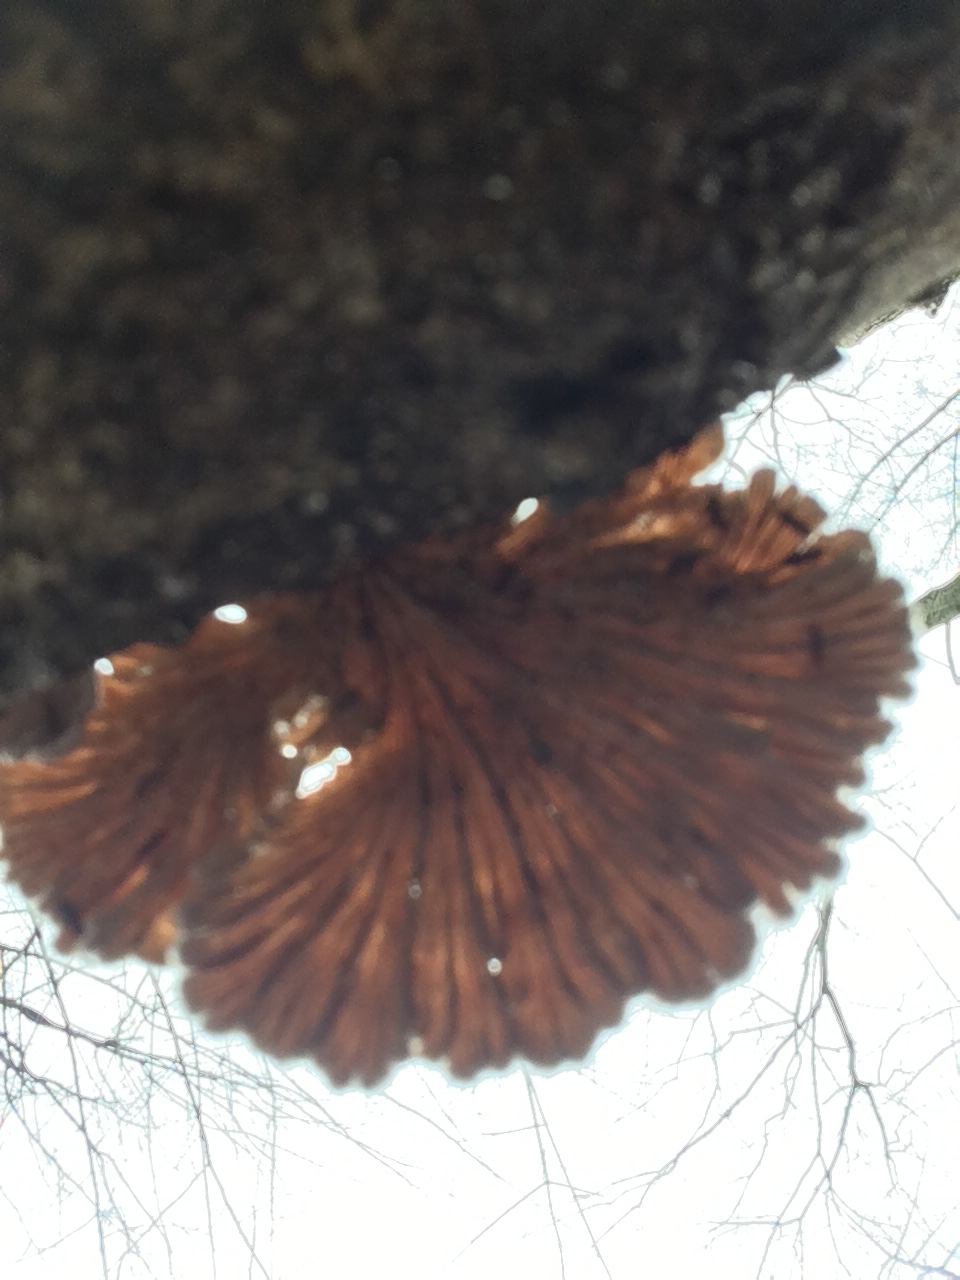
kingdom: Fungi
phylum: Basidiomycota
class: Agaricomycetes
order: Agaricales
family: Schizophyllaceae
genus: Schizophyllum
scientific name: Schizophyllum commune
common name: Common porecrust
